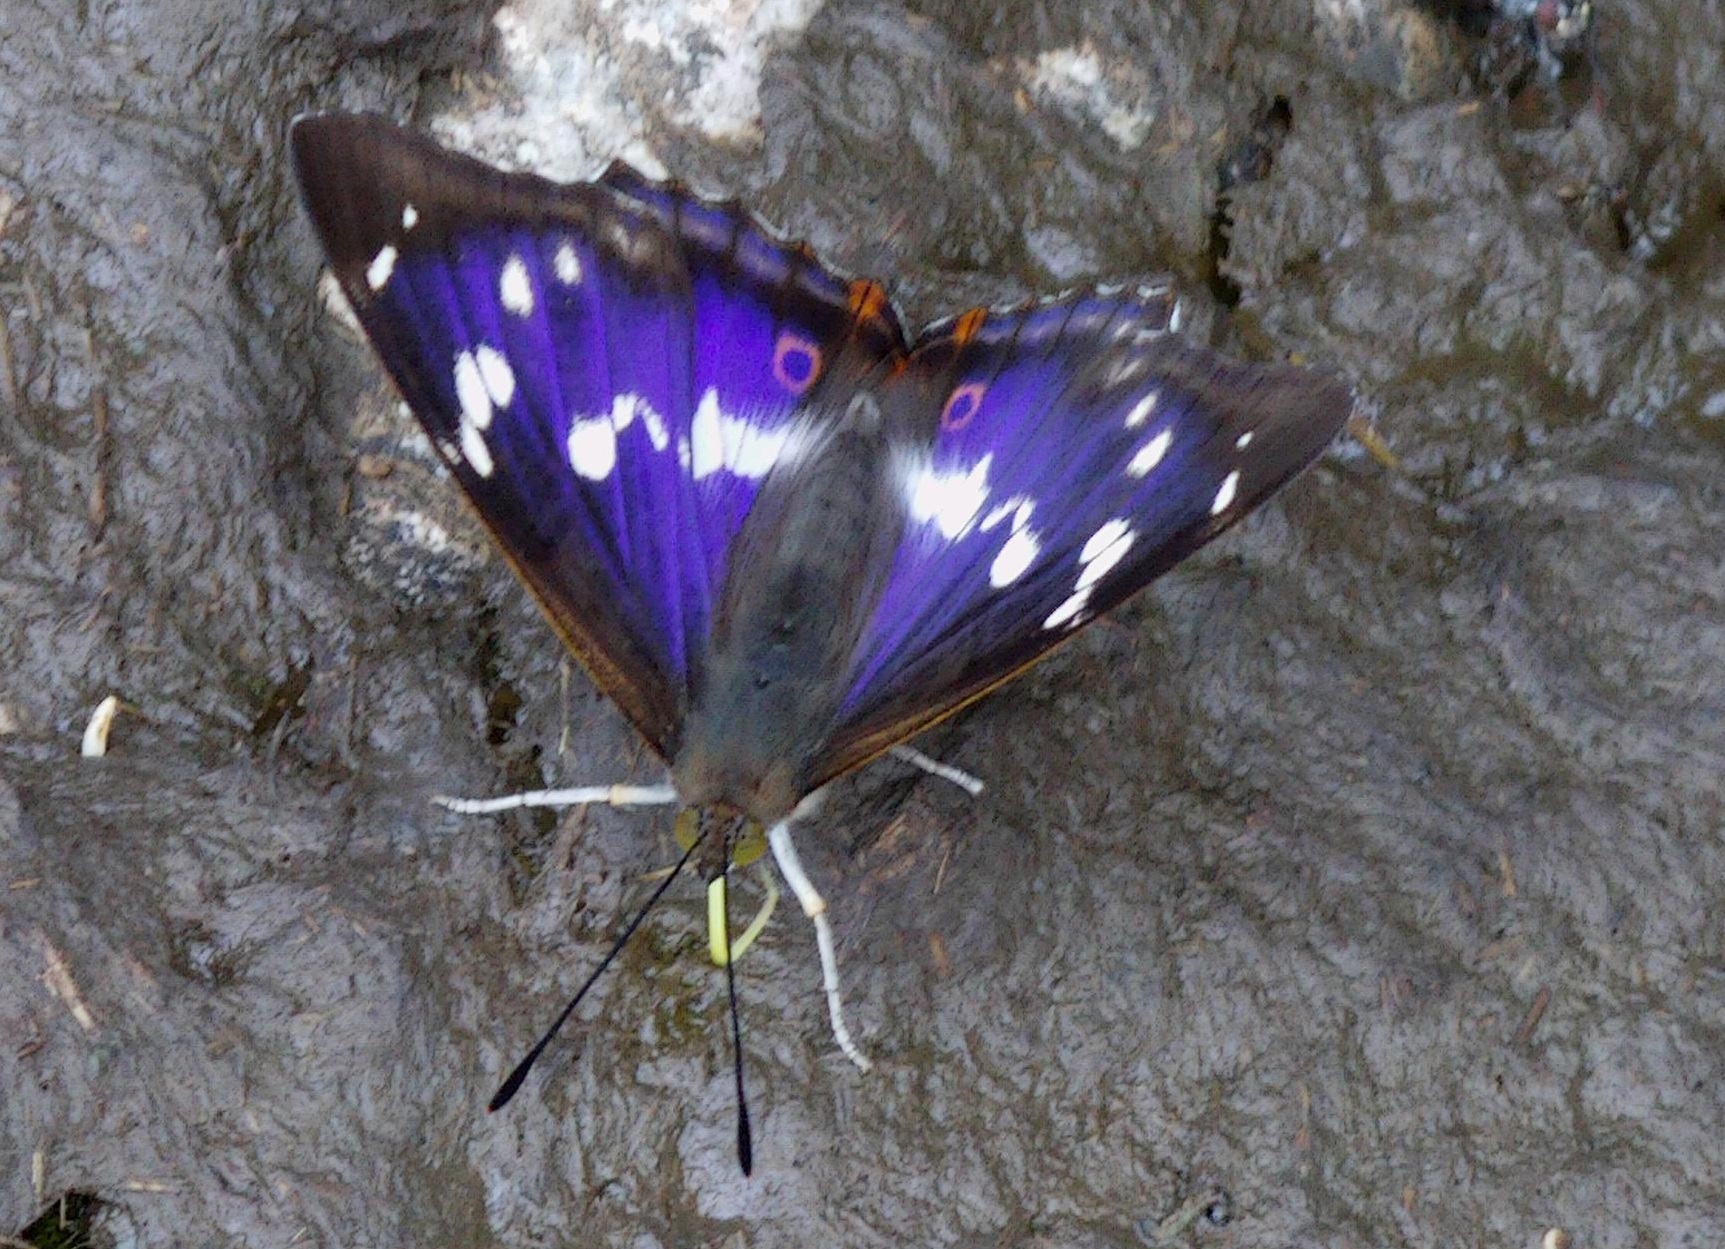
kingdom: Animalia
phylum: Arthropoda
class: Insecta
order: Lepidoptera
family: Nymphalidae
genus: Apatura
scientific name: Apatura iris
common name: Purple emperor
